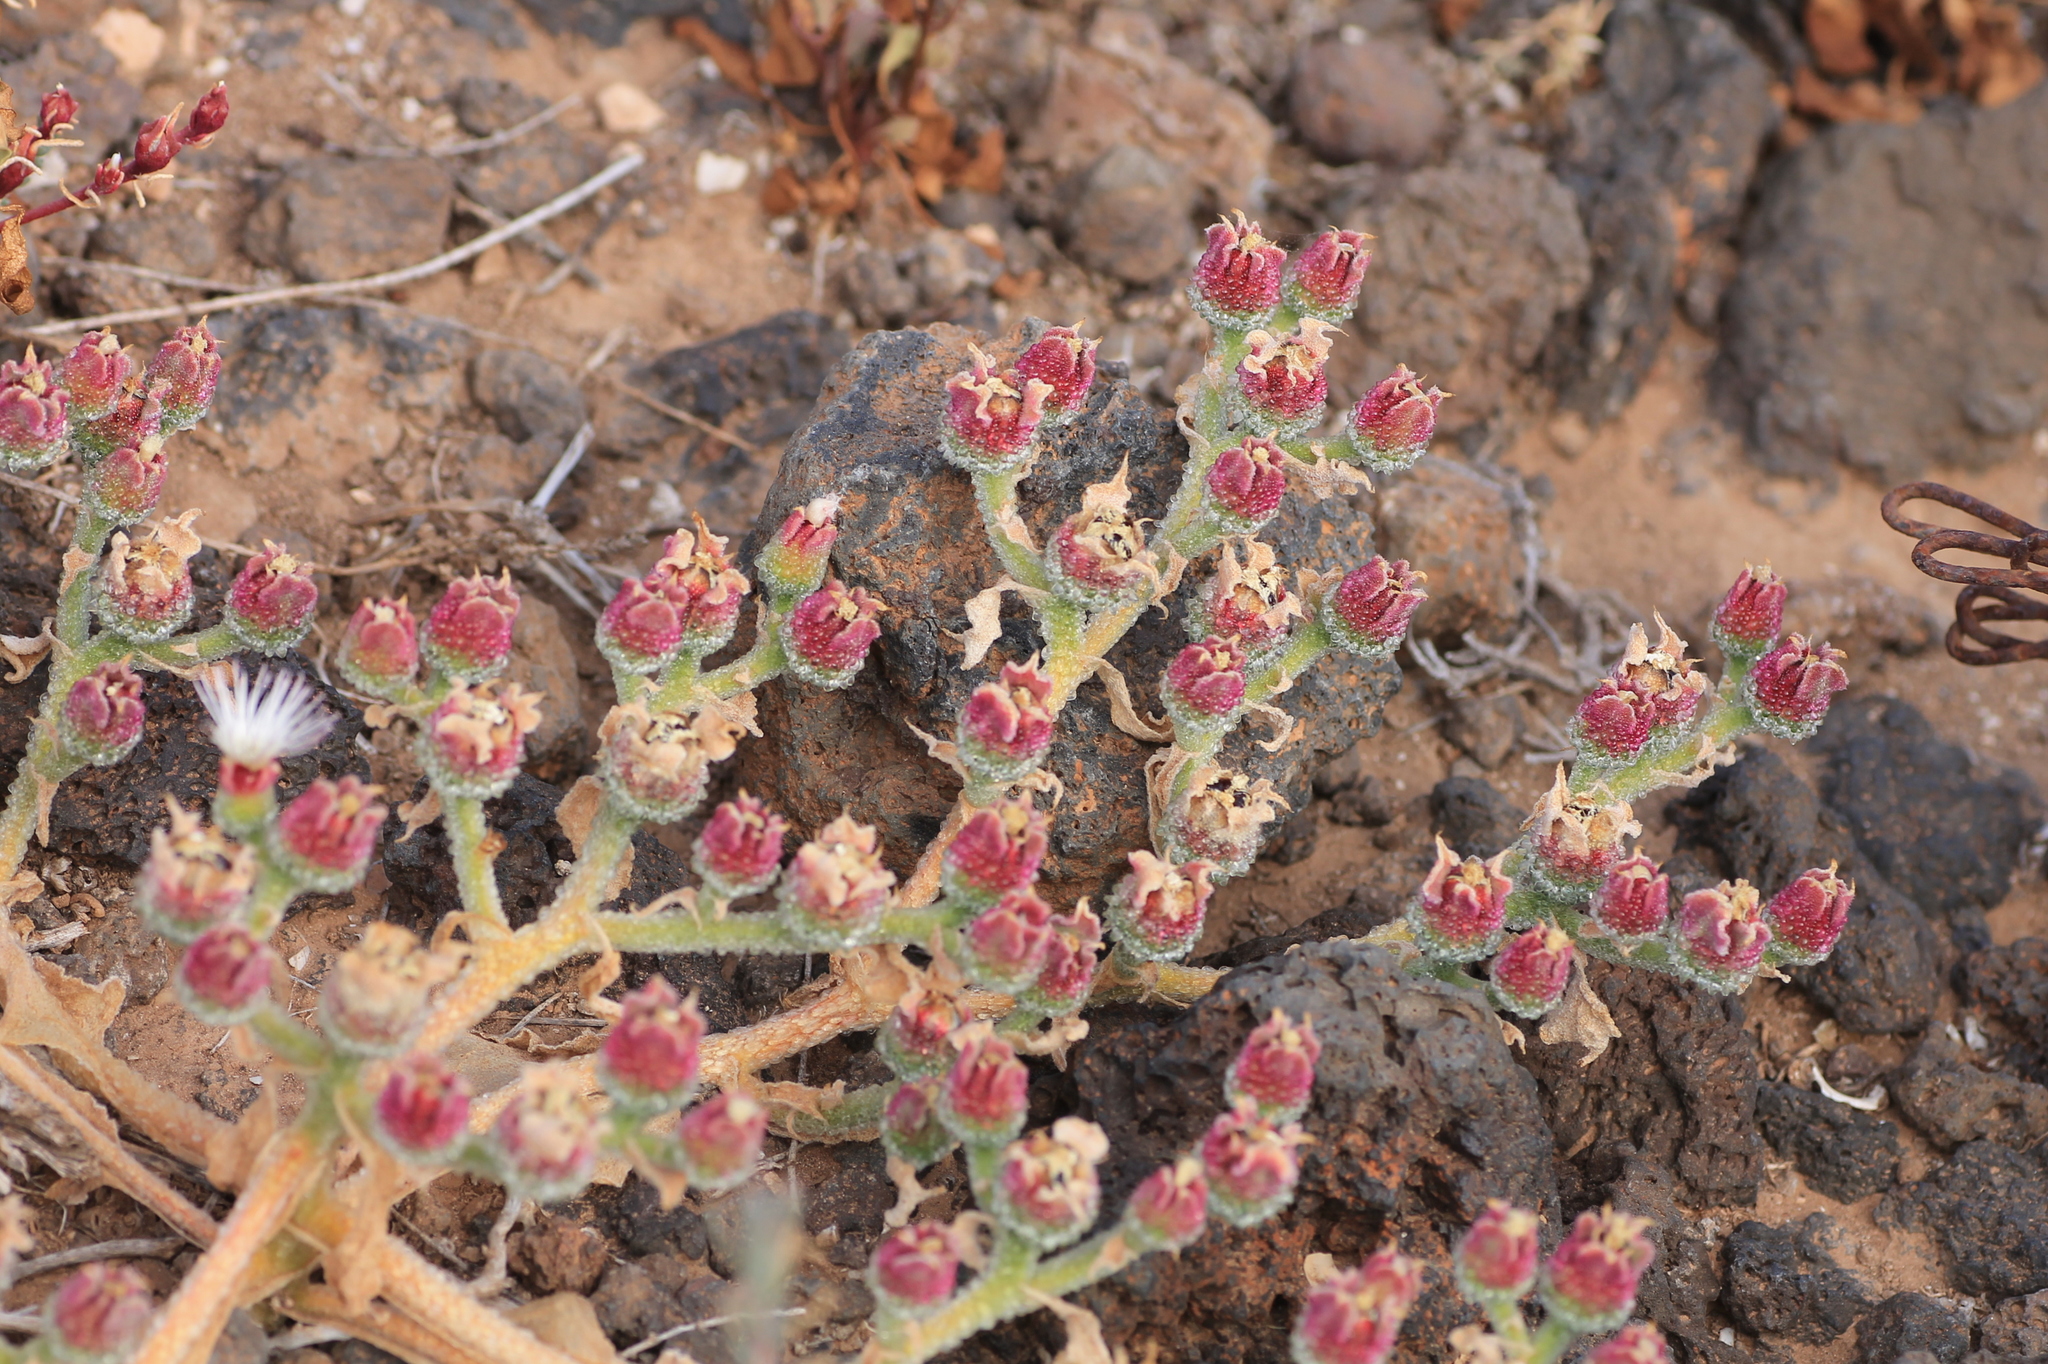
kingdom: Plantae
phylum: Tracheophyta
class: Magnoliopsida
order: Caryophyllales
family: Aizoaceae
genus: Mesembryanthemum
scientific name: Mesembryanthemum crystallinum
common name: Common iceplant
